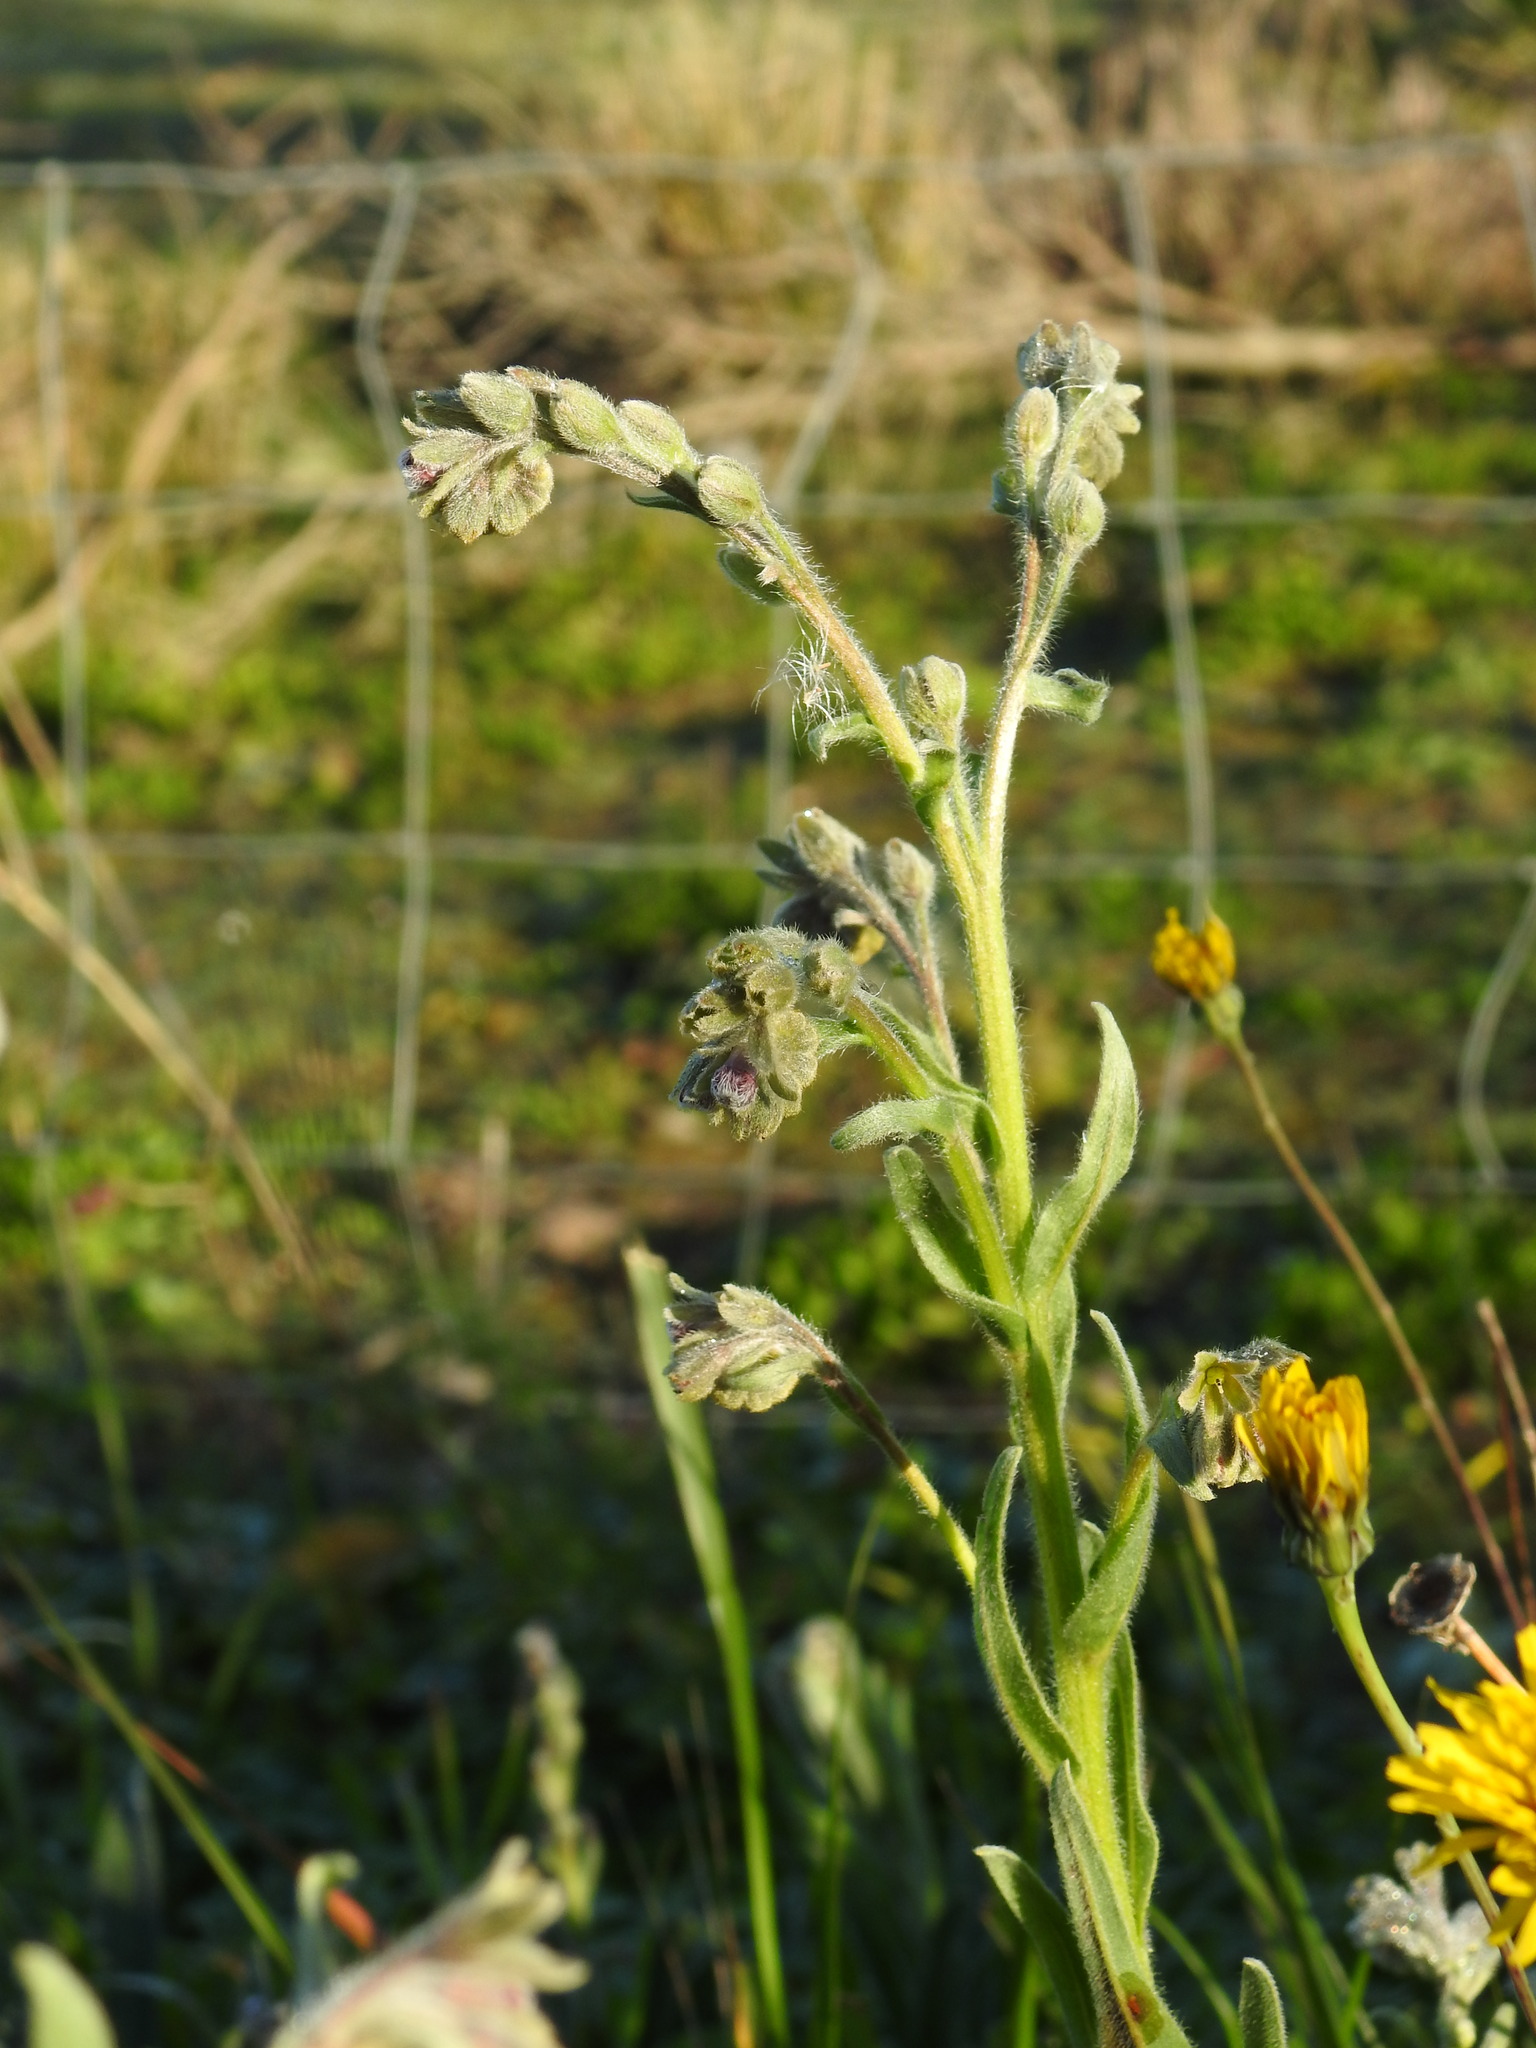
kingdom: Plantae
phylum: Tracheophyta
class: Magnoliopsida
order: Boraginales
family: Boraginaceae
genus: Cynoglossum
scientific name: Cynoglossum clandestinum
